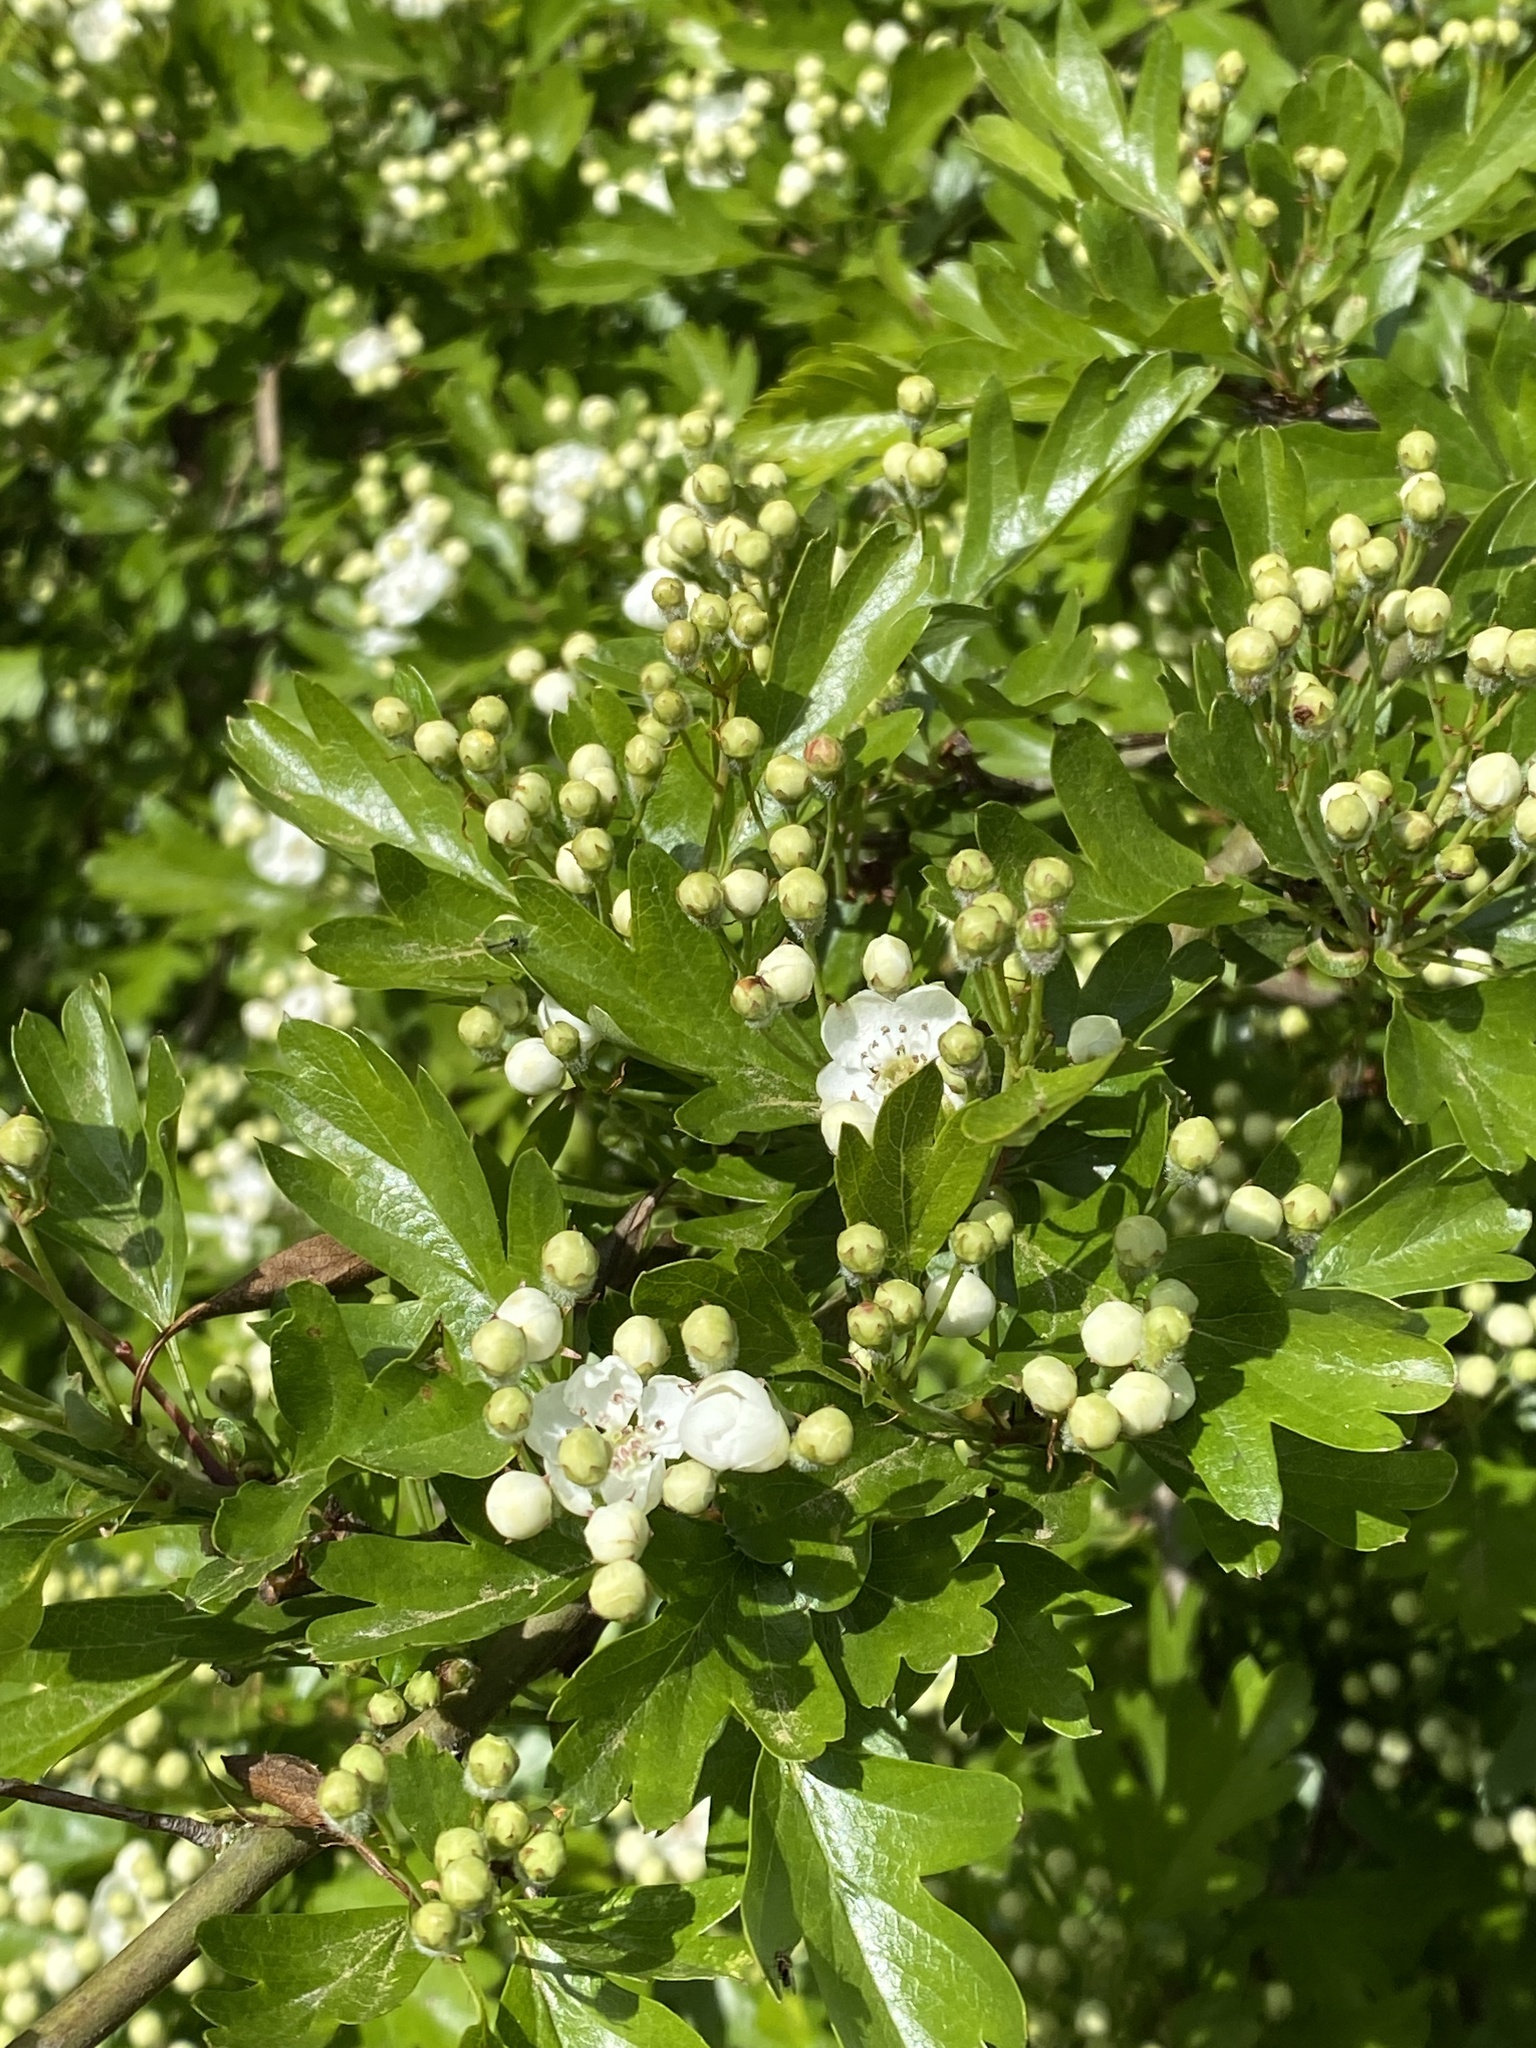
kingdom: Plantae
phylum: Tracheophyta
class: Magnoliopsida
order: Rosales
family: Rosaceae
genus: Crataegus
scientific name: Crataegus monogyna
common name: Hawthorn
